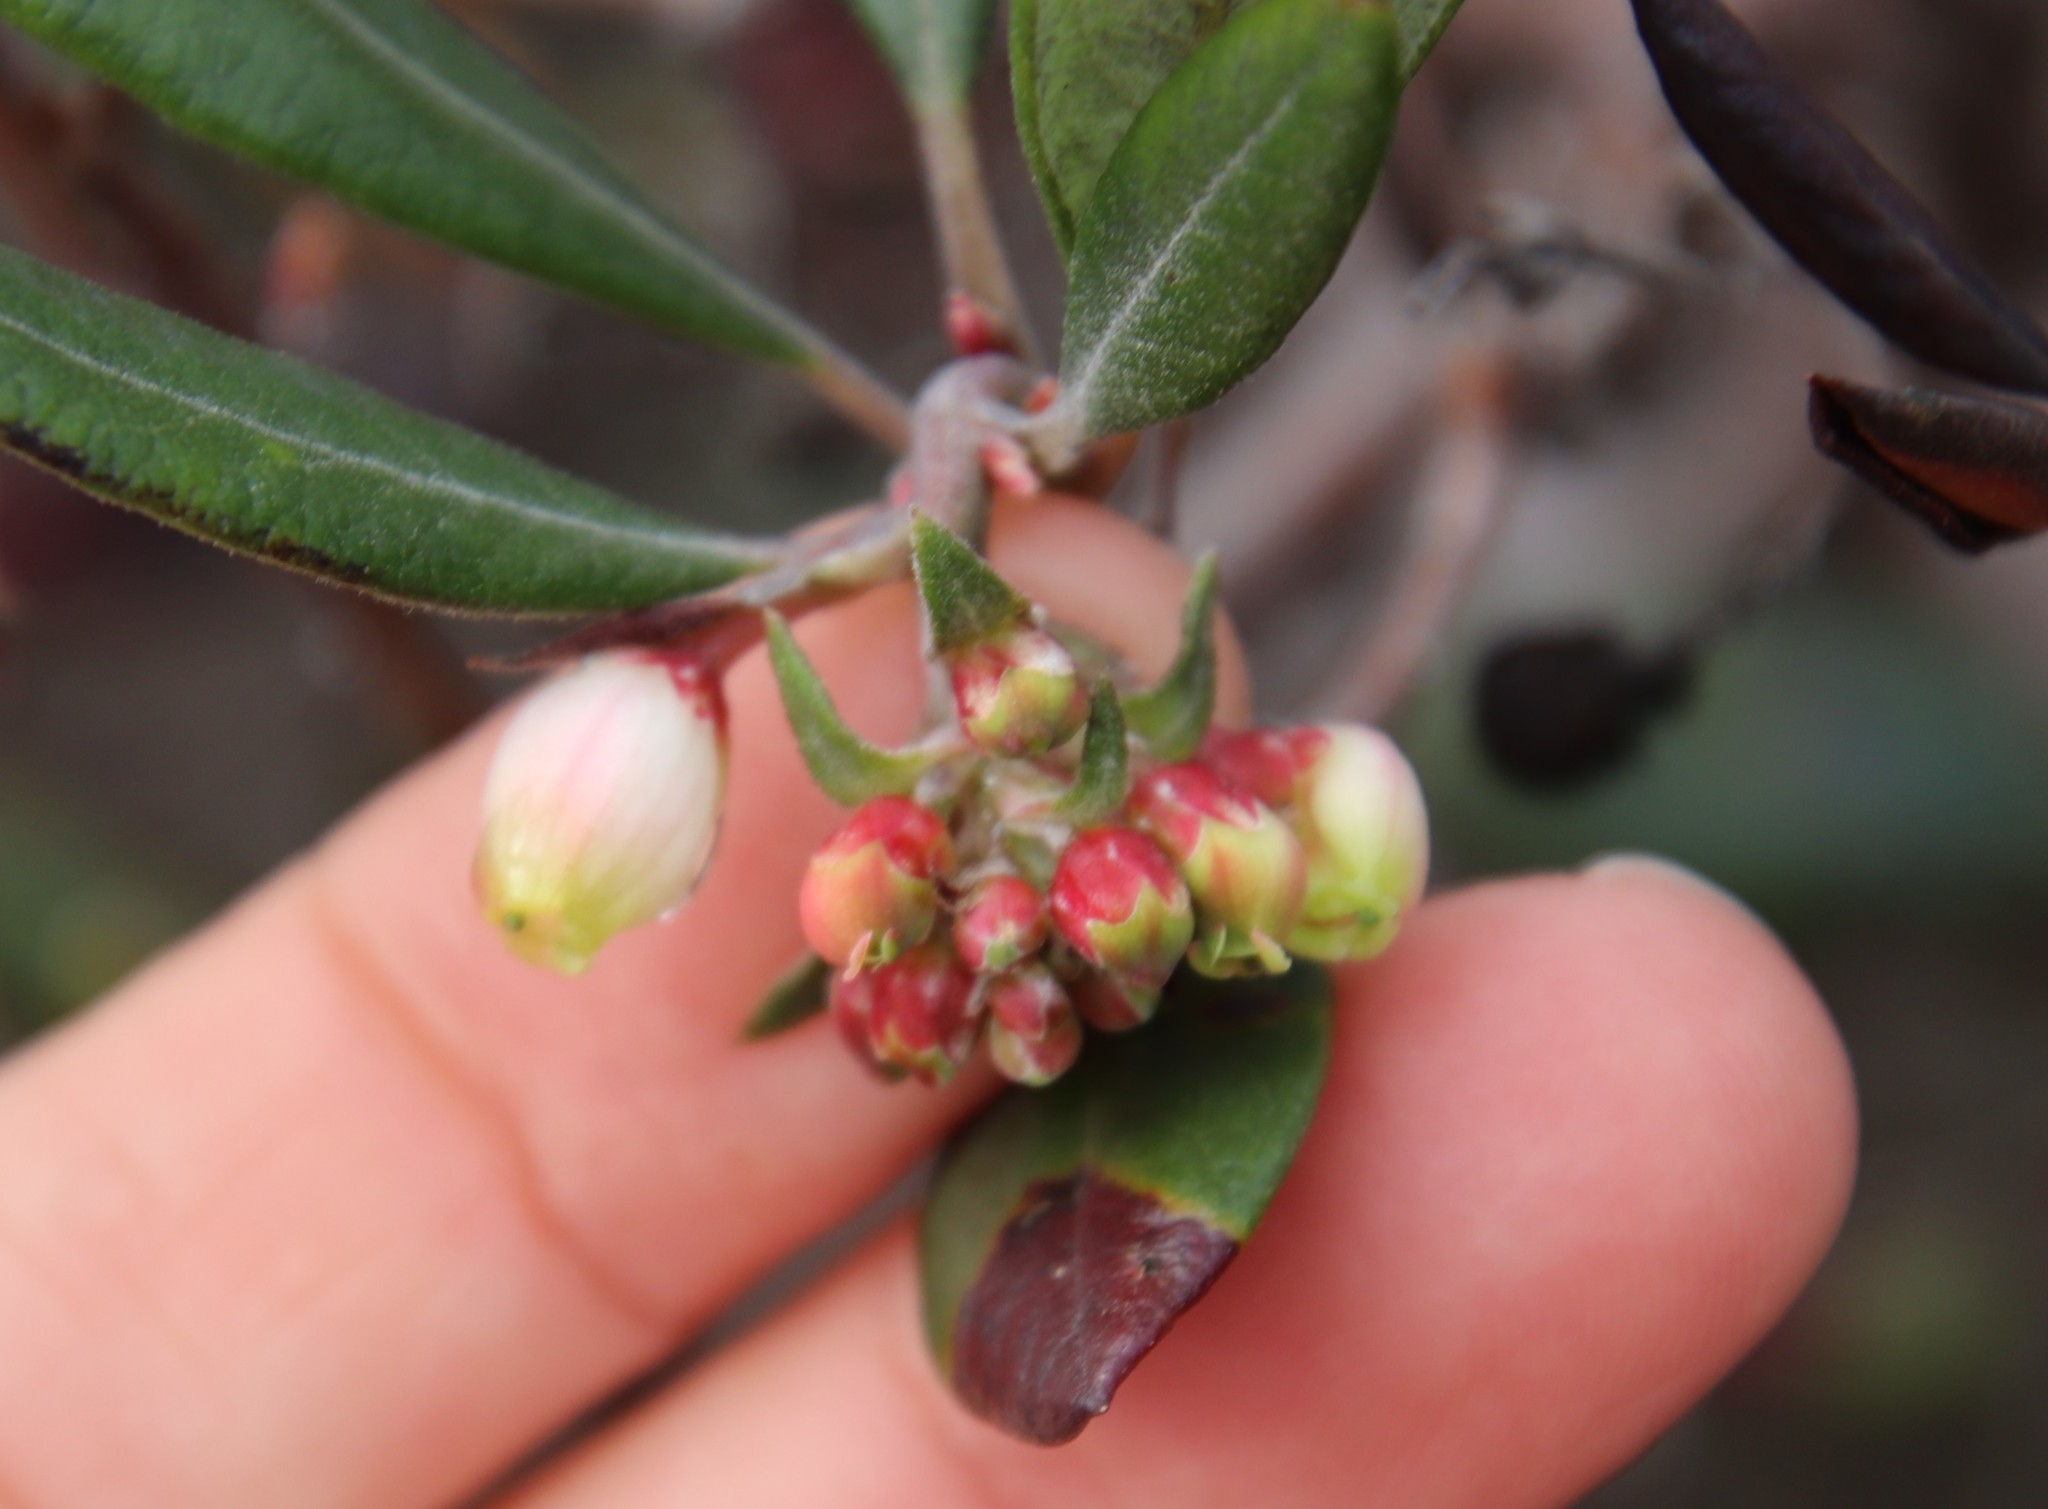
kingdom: Plantae
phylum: Tracheophyta
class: Magnoliopsida
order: Ericales
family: Ericaceae
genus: Arctostaphylos
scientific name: Arctostaphylos bicolor
